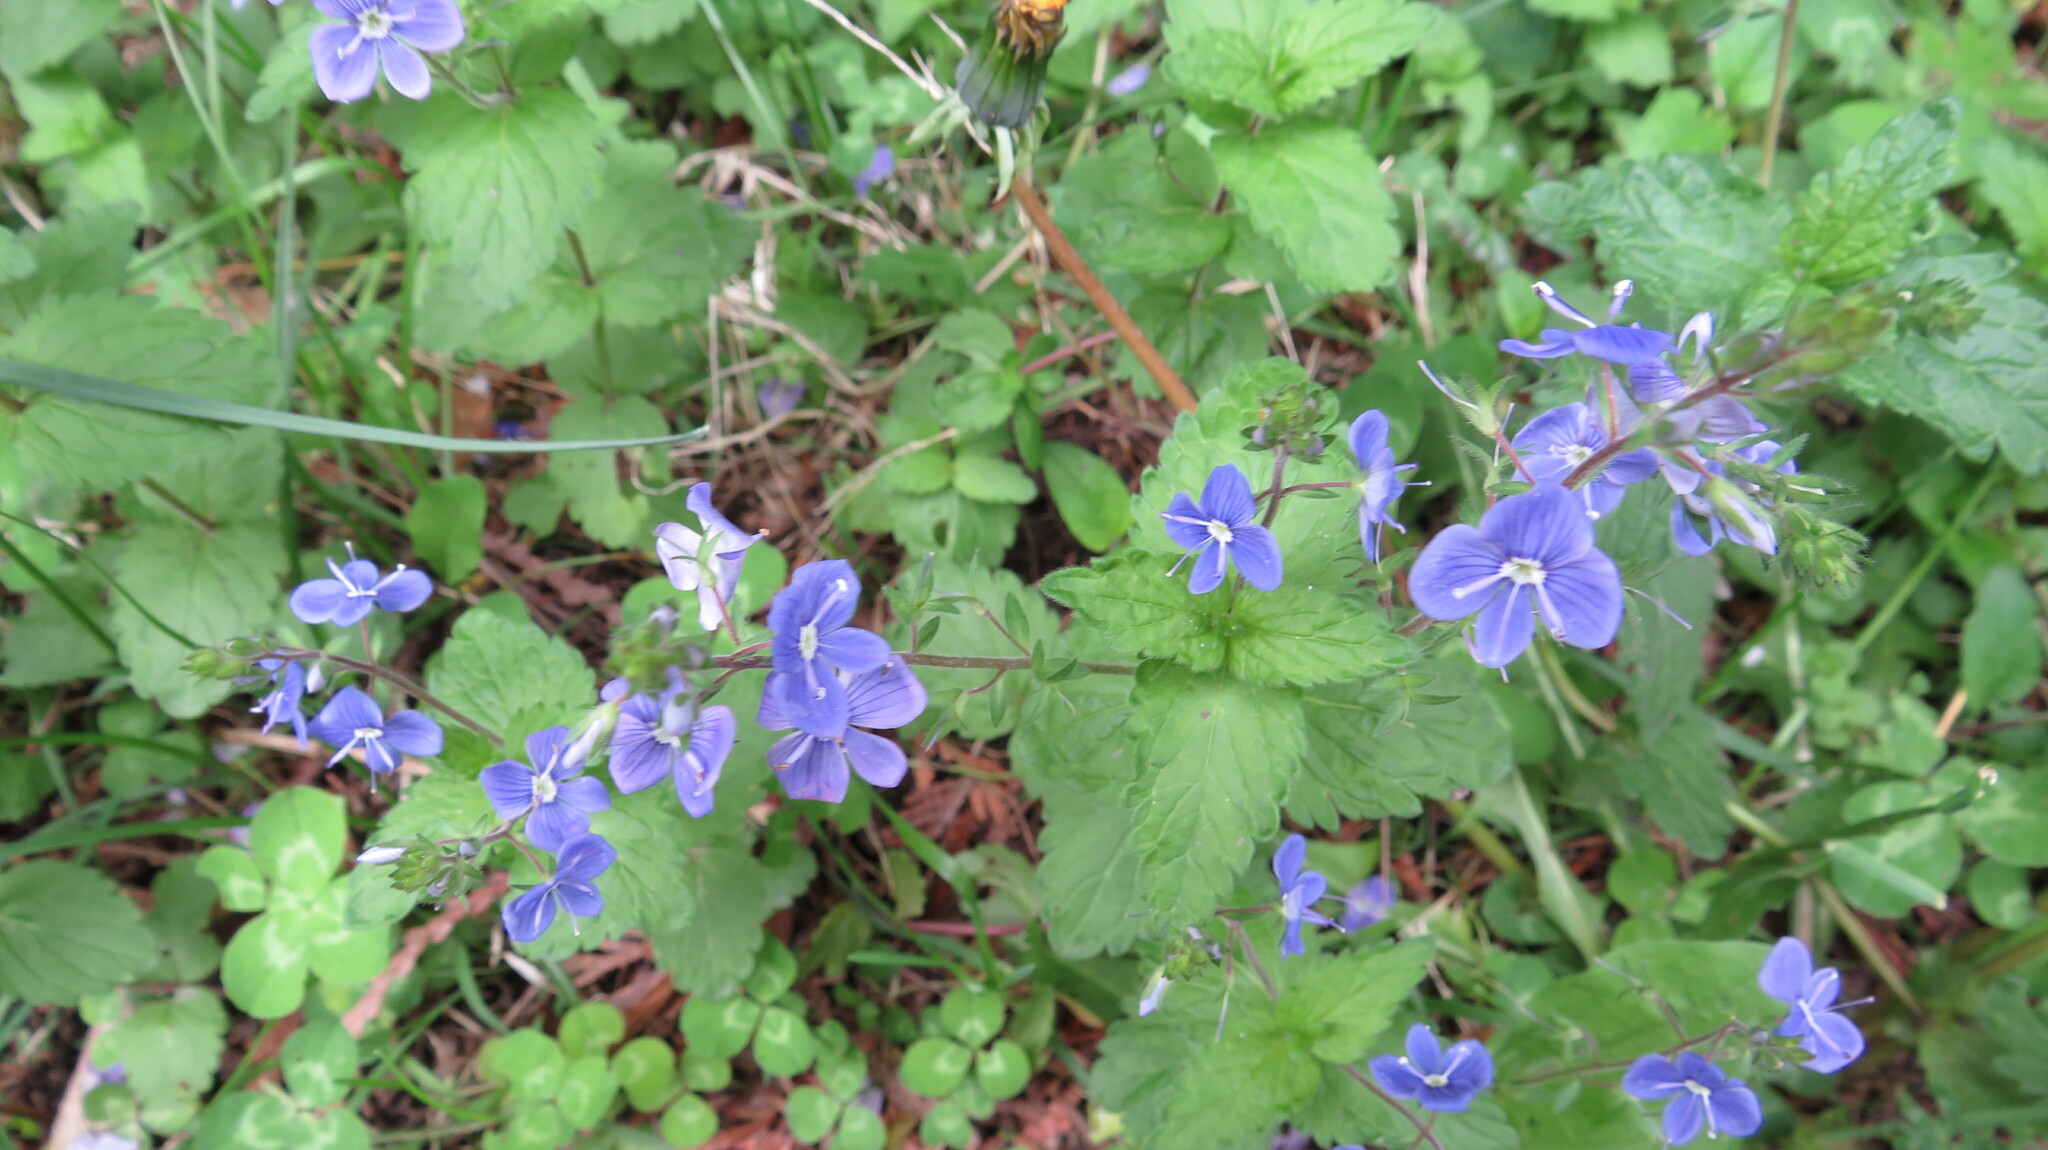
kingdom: Plantae
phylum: Tracheophyta
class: Magnoliopsida
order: Lamiales
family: Plantaginaceae
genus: Veronica
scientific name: Veronica chamaedrys
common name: Germander speedwell
